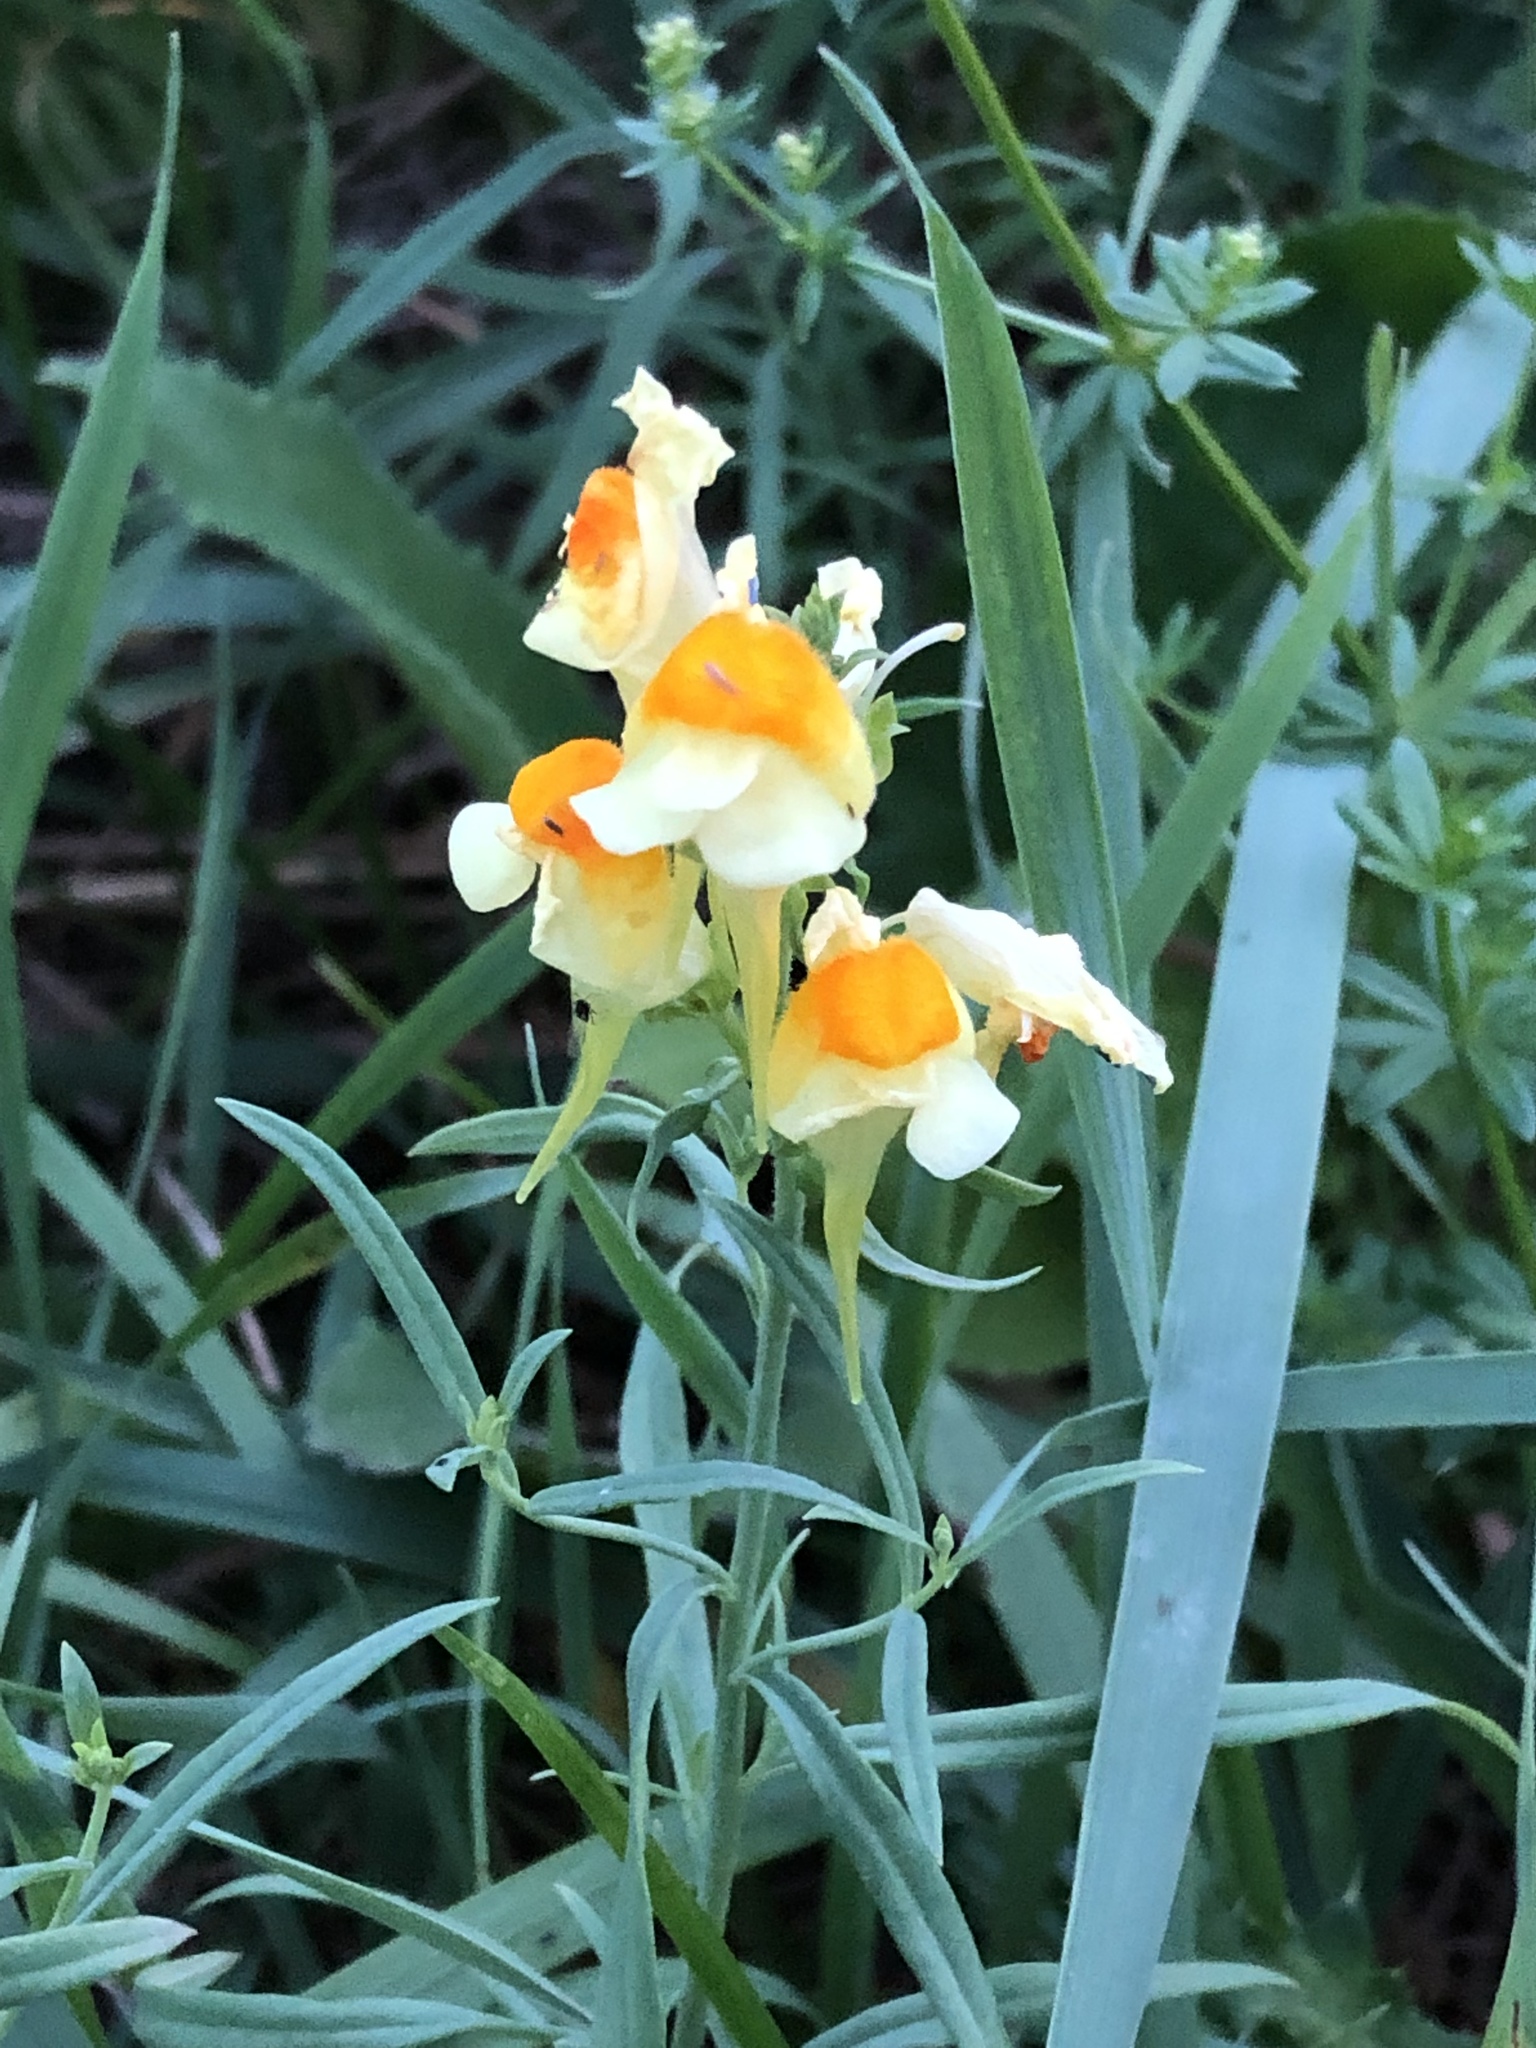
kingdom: Plantae
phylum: Tracheophyta
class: Magnoliopsida
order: Lamiales
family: Plantaginaceae
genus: Linaria
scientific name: Linaria vulgaris
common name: Butter and eggs
